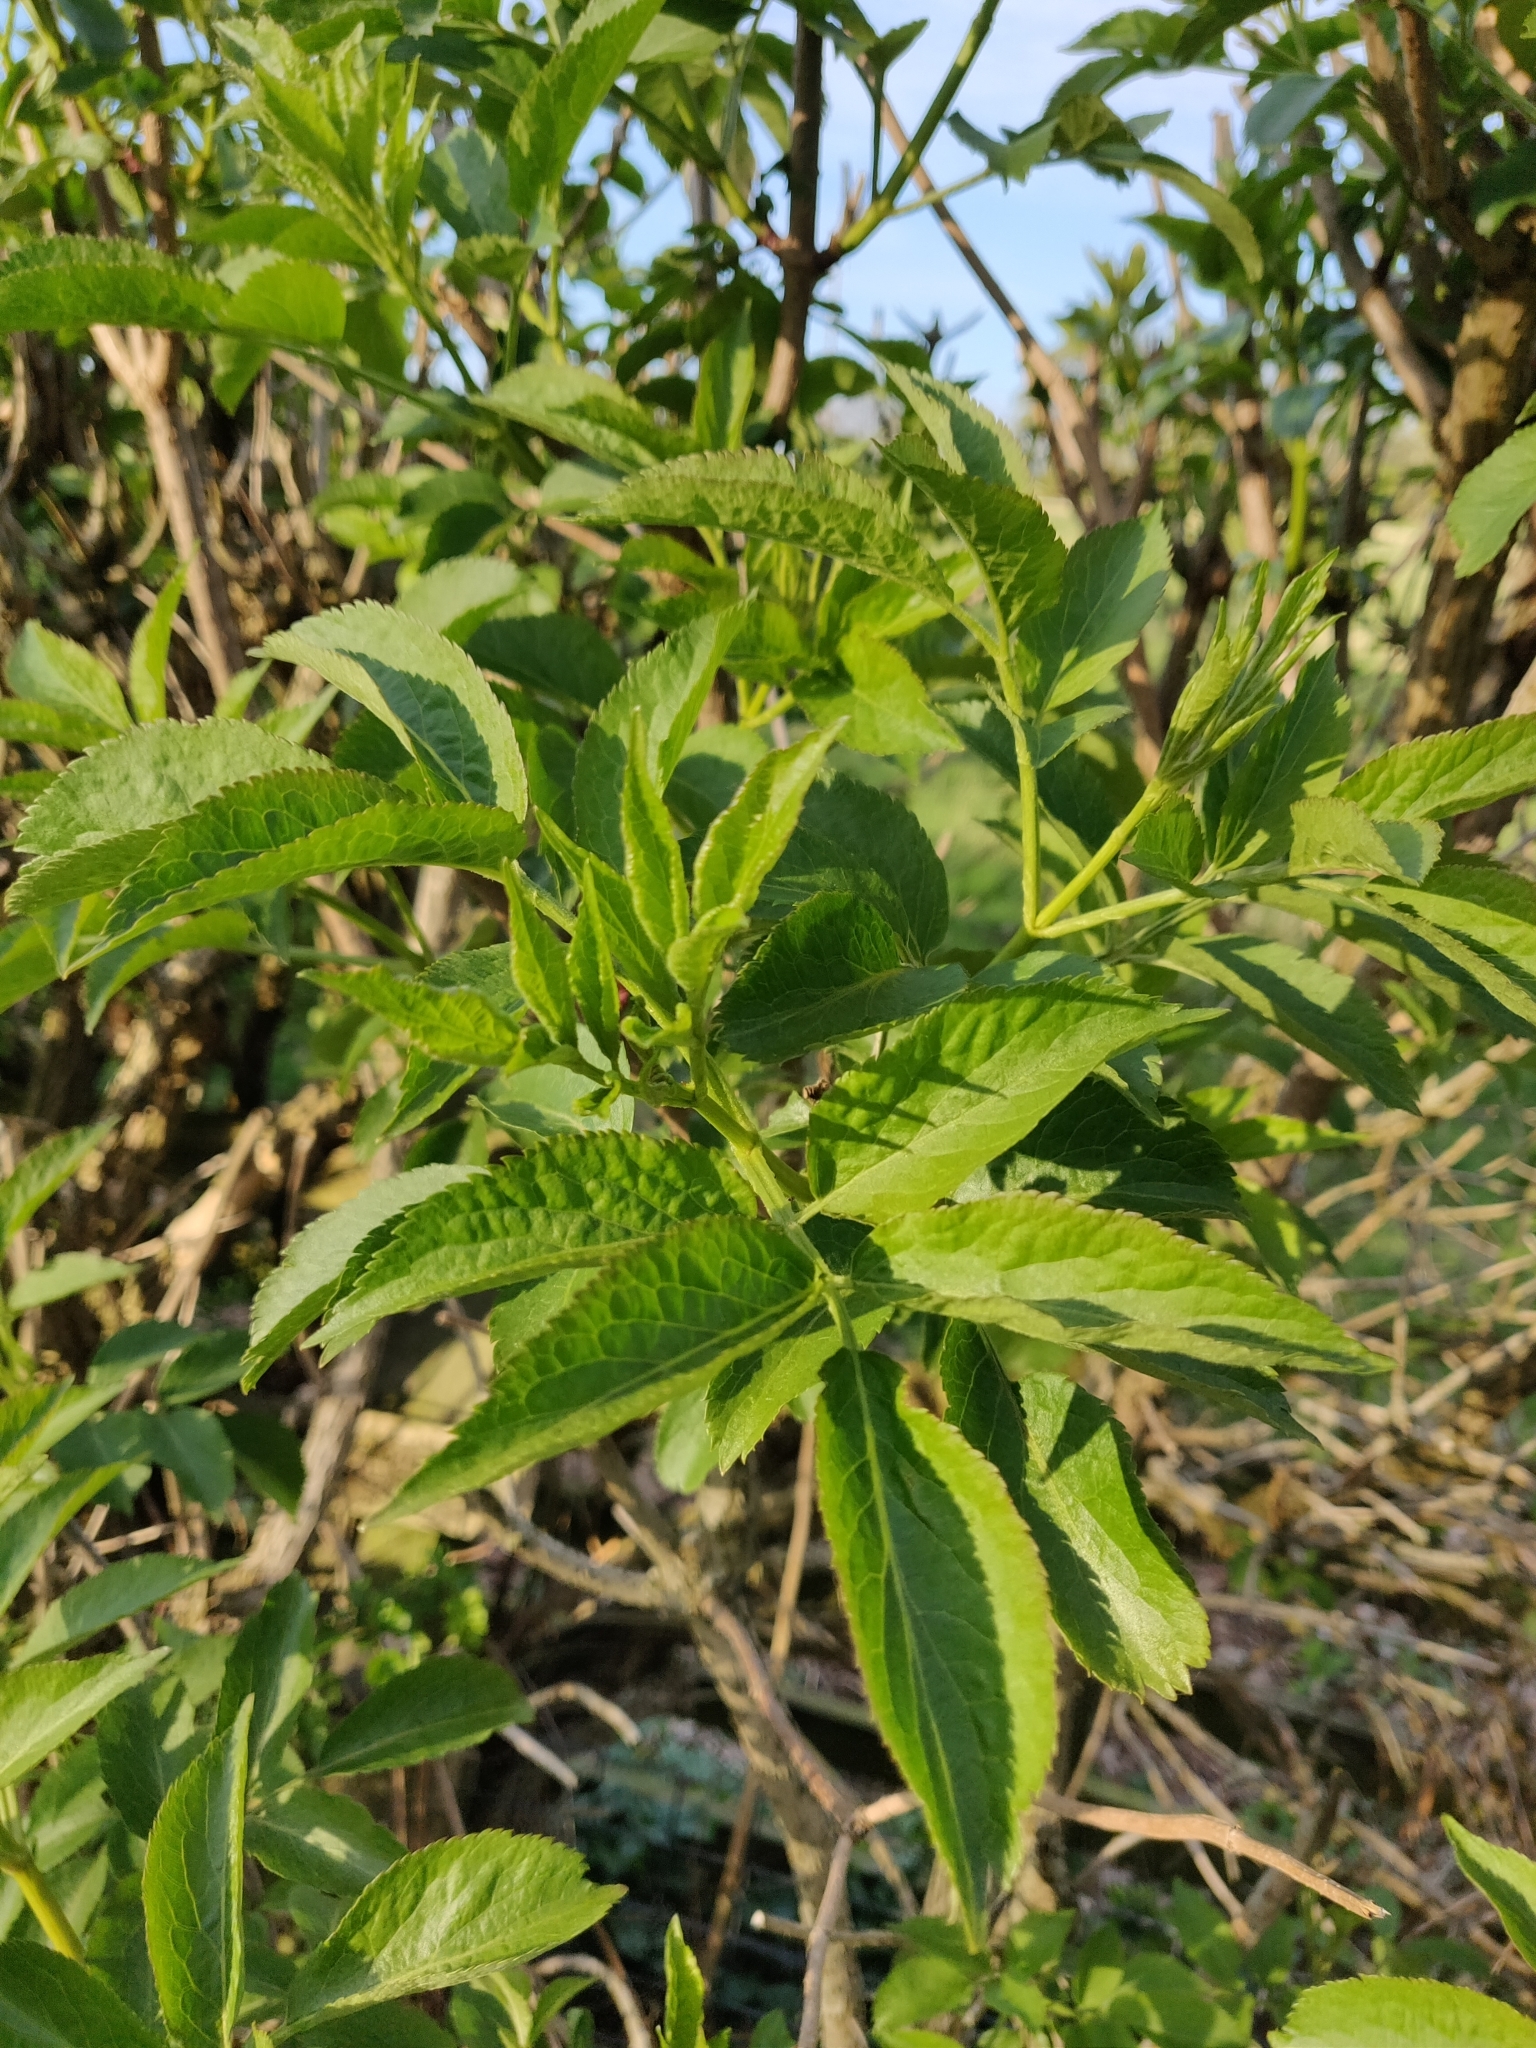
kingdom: Plantae
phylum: Tracheophyta
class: Magnoliopsida
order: Dipsacales
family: Viburnaceae
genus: Sambucus
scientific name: Sambucus nigra
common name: Elder
